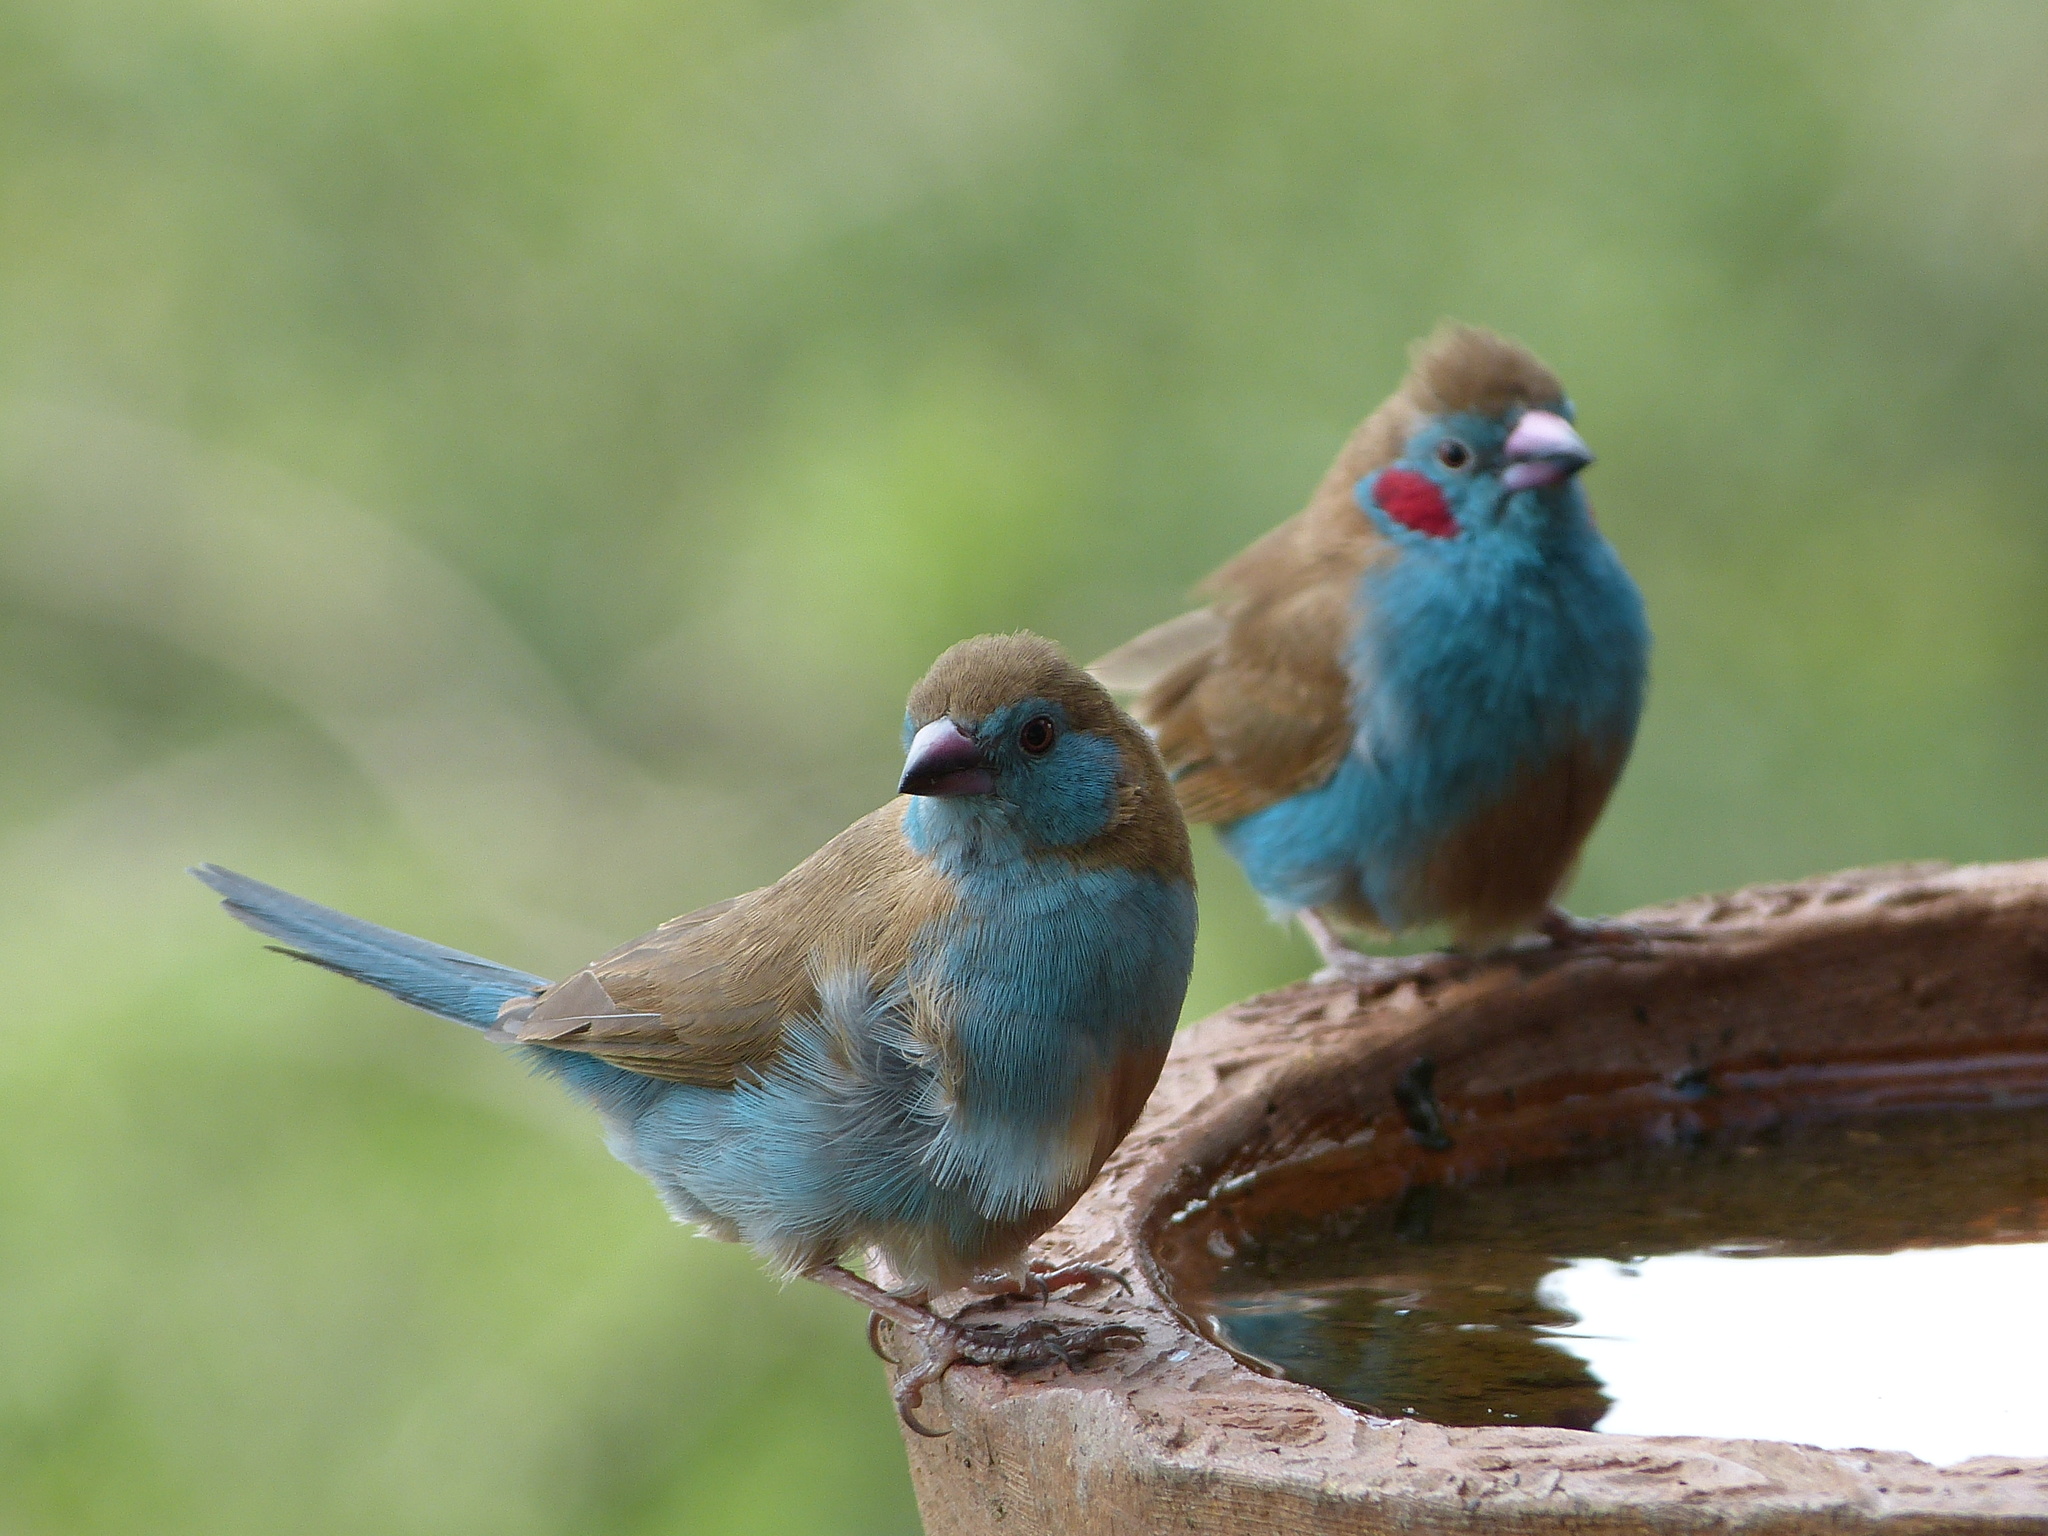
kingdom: Animalia
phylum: Chordata
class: Aves
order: Passeriformes
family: Estrildidae
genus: Uraeginthus
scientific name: Uraeginthus bengalus
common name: Red-cheeked cordon-bleu
